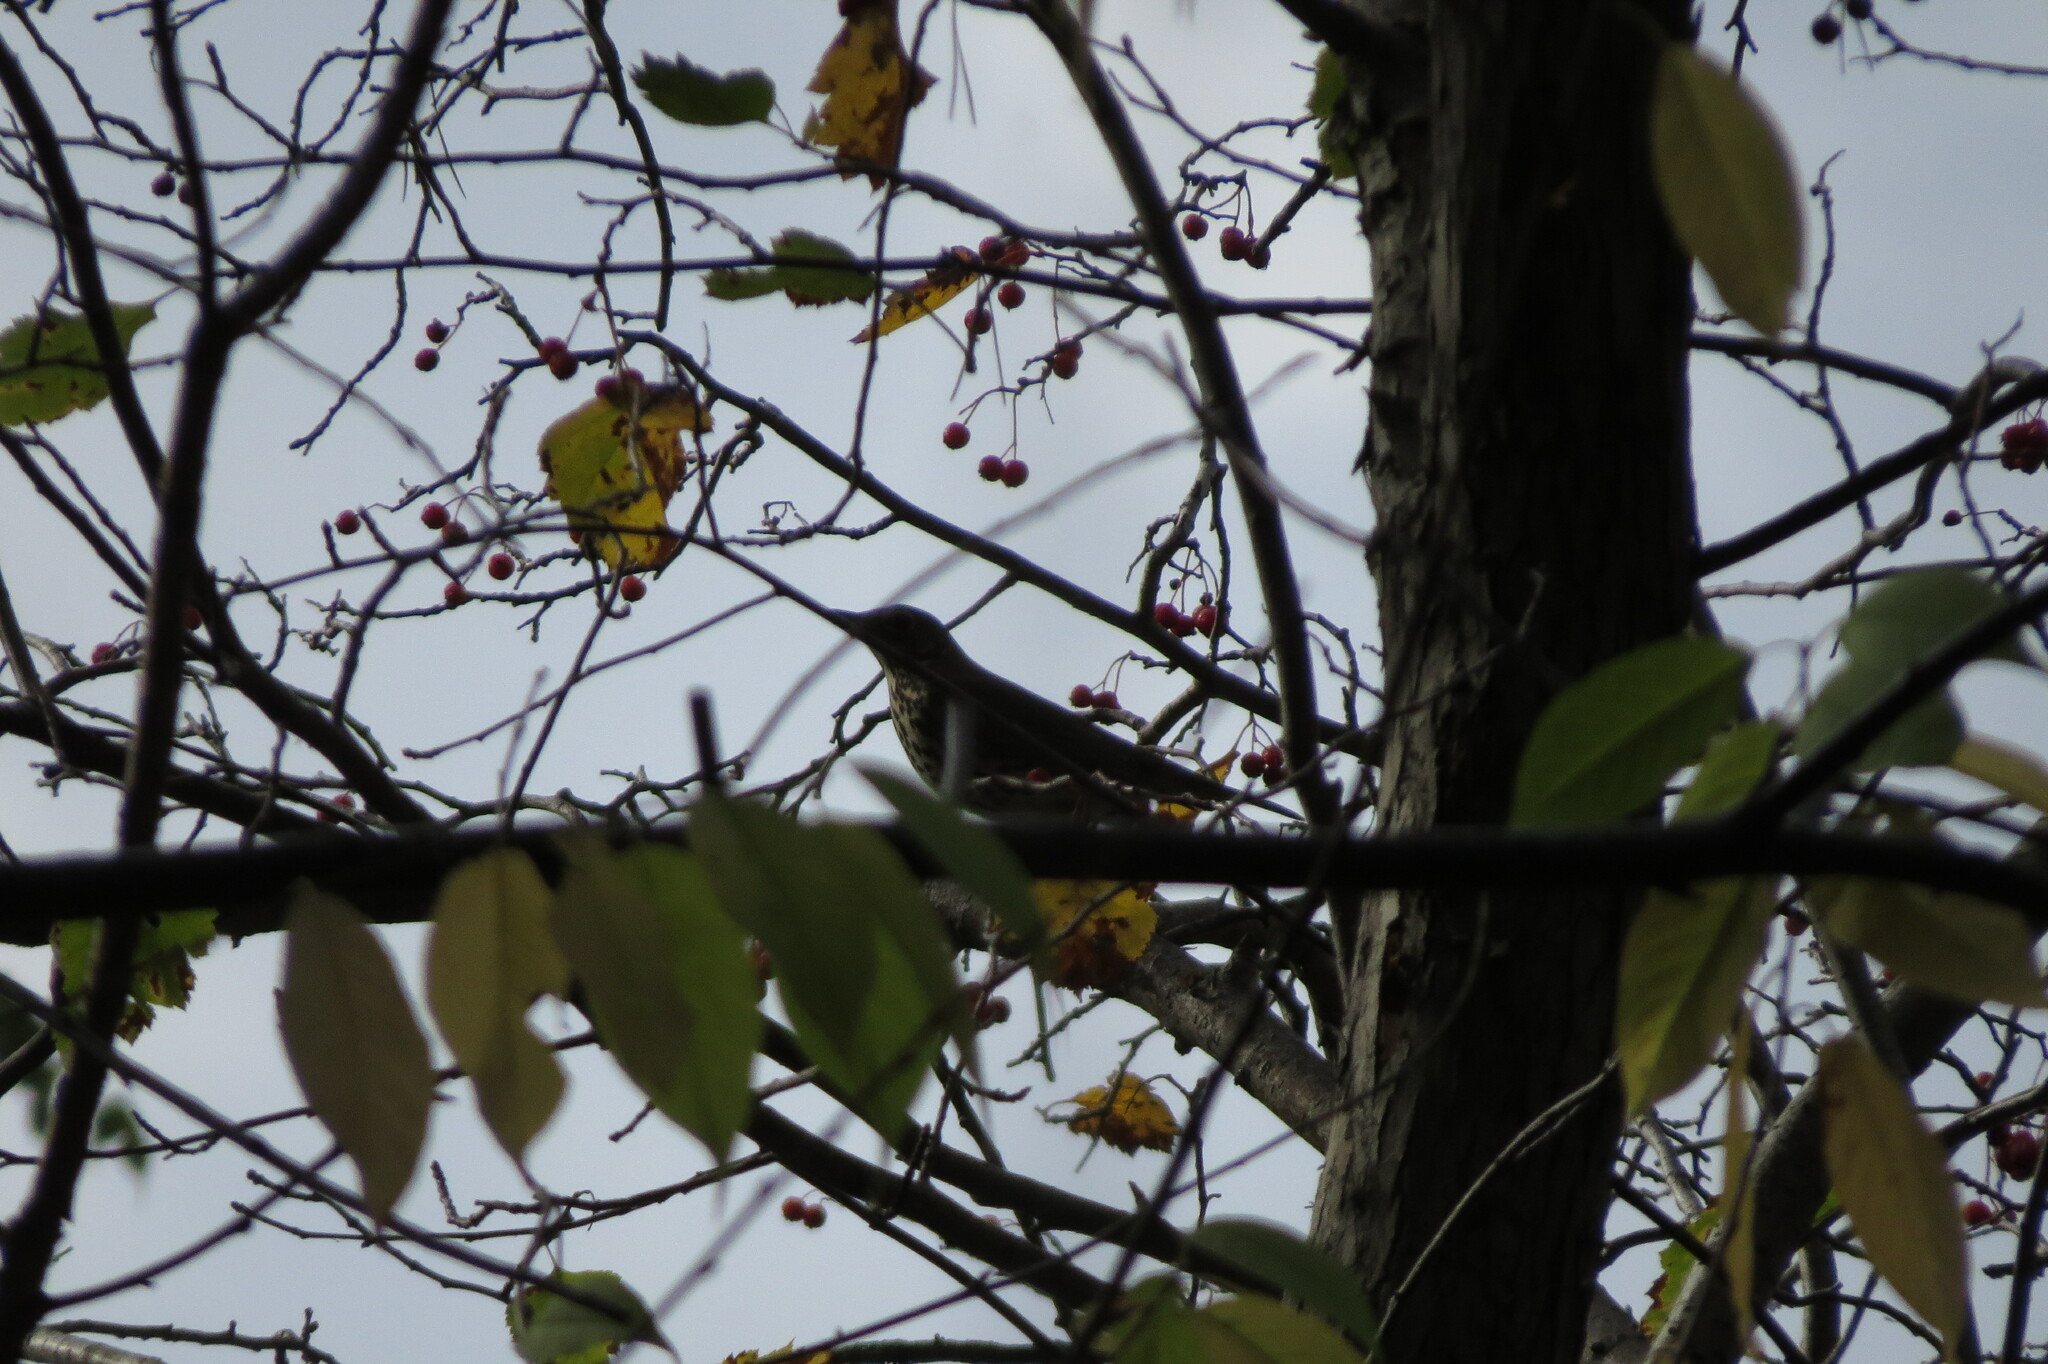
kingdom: Animalia
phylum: Chordata
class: Aves
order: Passeriformes
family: Turdidae
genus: Turdus
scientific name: Turdus philomelos
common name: Song thrush
